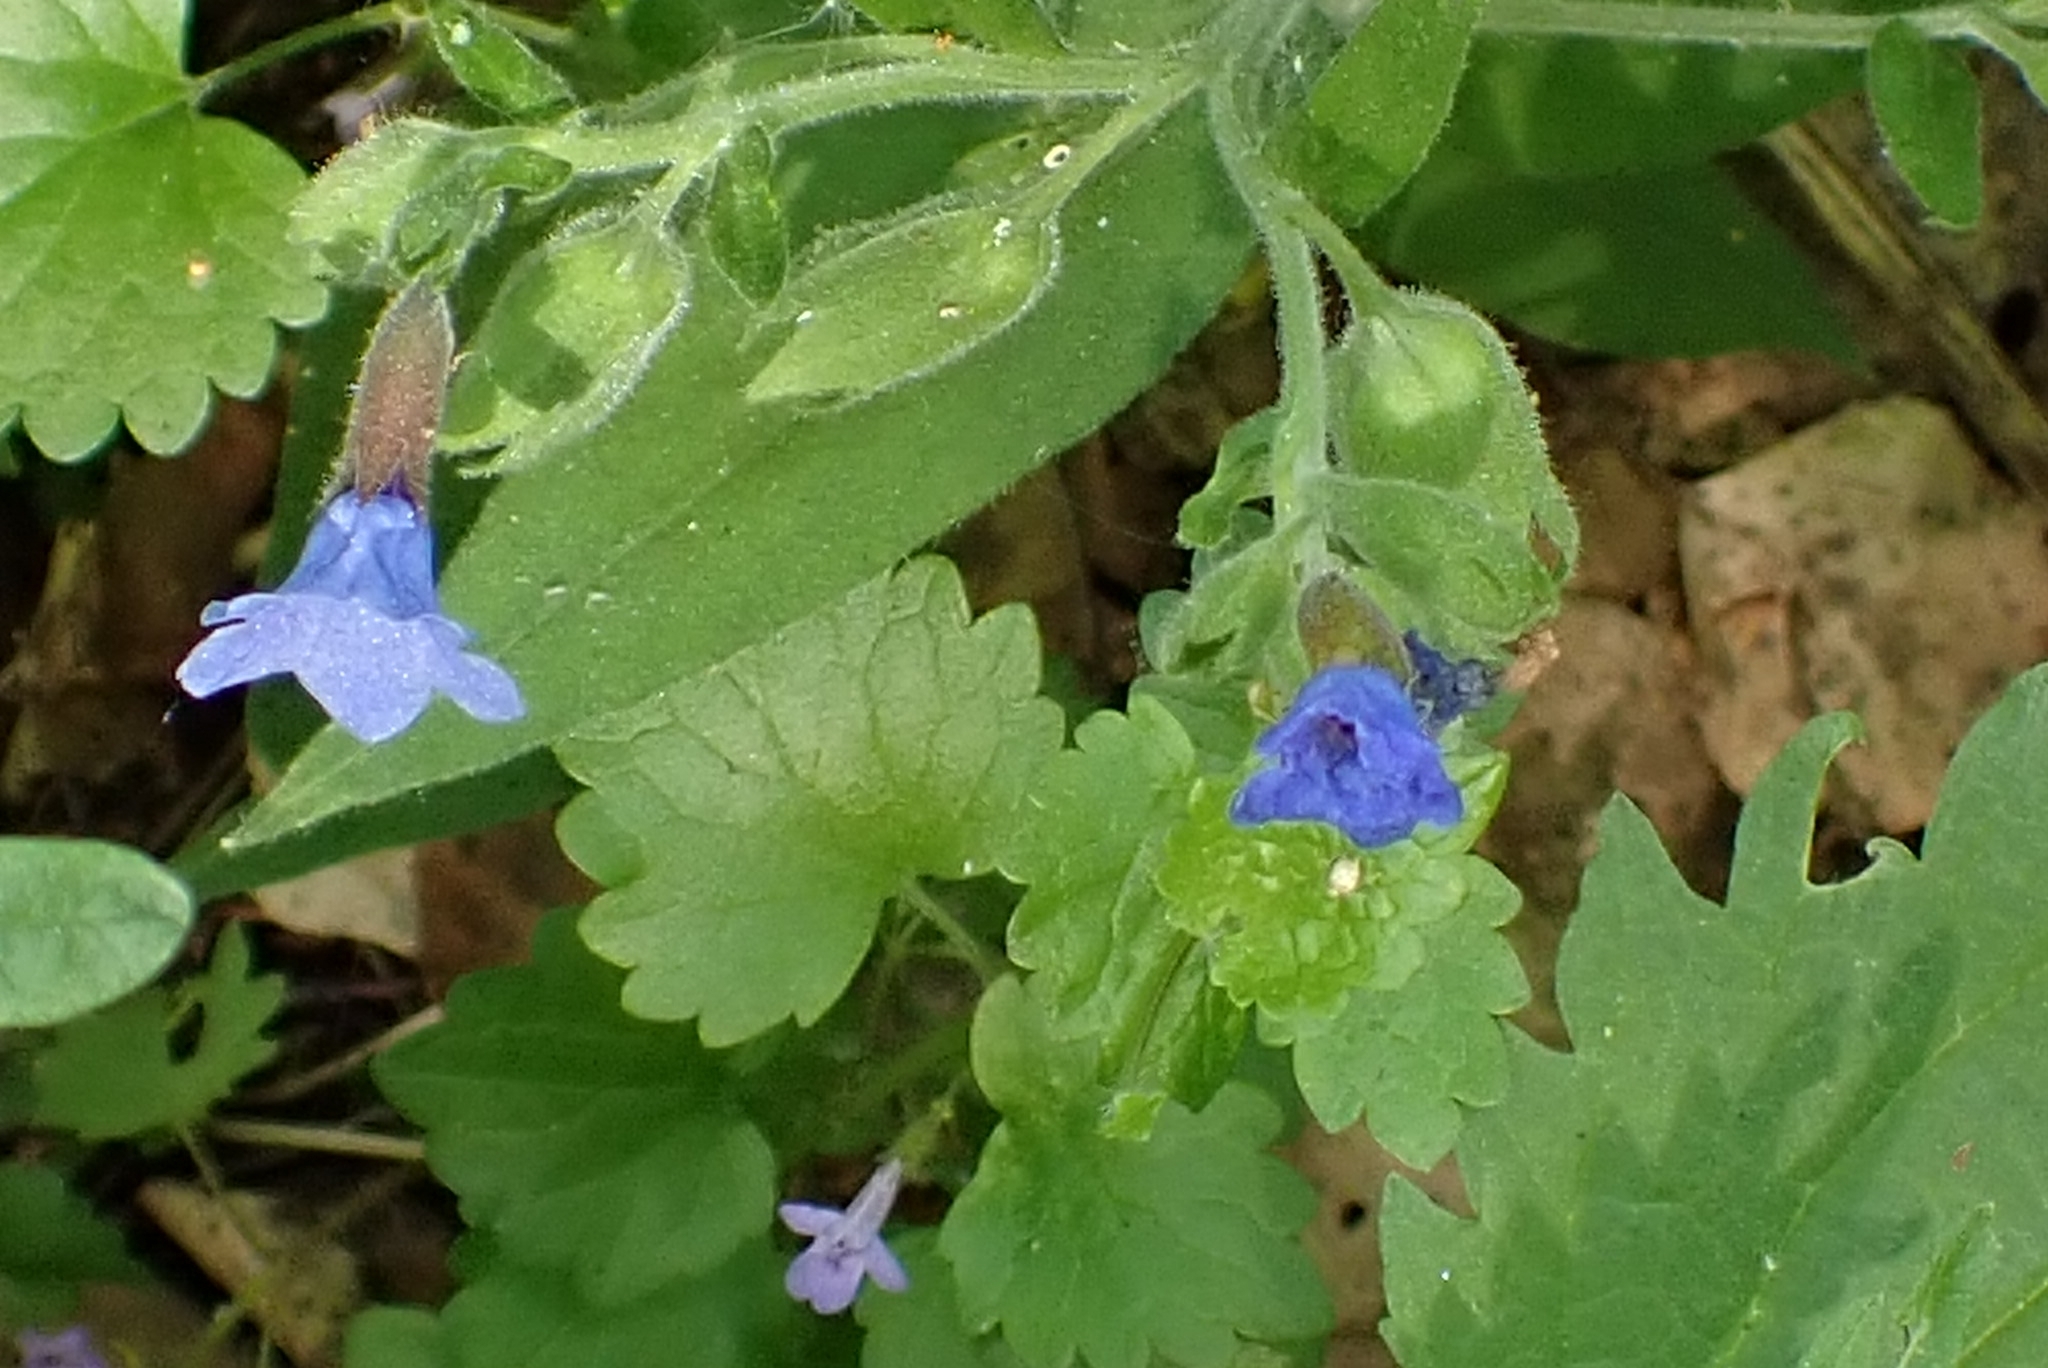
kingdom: Plantae
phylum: Tracheophyta
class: Magnoliopsida
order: Boraginales
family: Boraginaceae
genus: Pulmonaria
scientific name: Pulmonaria mollis
